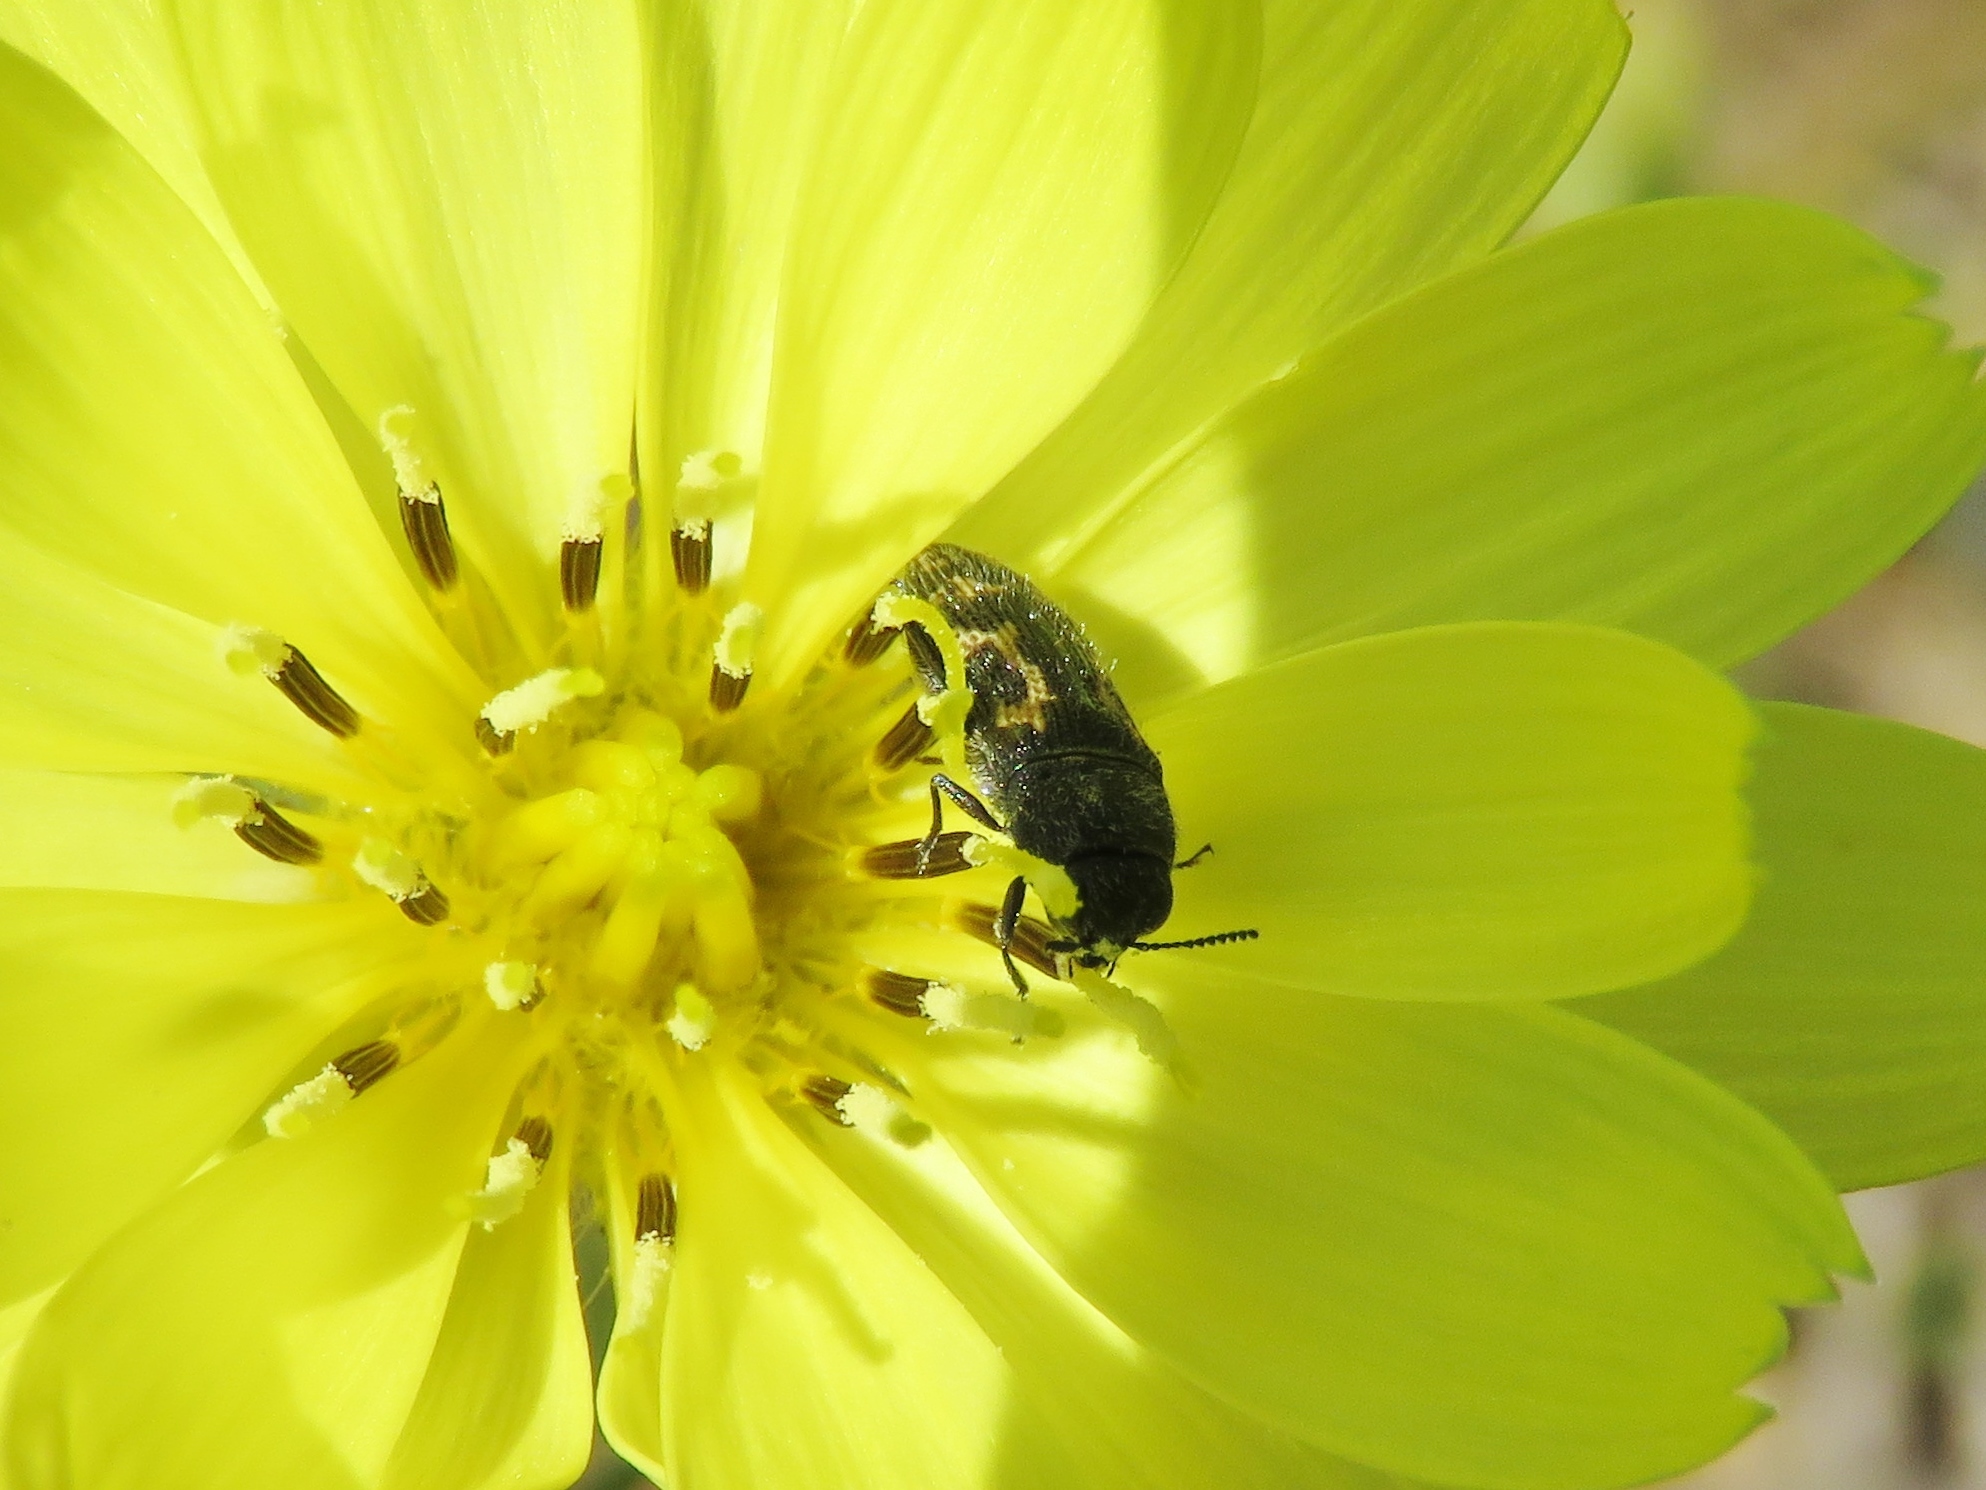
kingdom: Animalia
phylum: Arthropoda
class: Insecta
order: Coleoptera
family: Buprestidae
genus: Acmaeodera
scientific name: Acmaeodera neglecta
